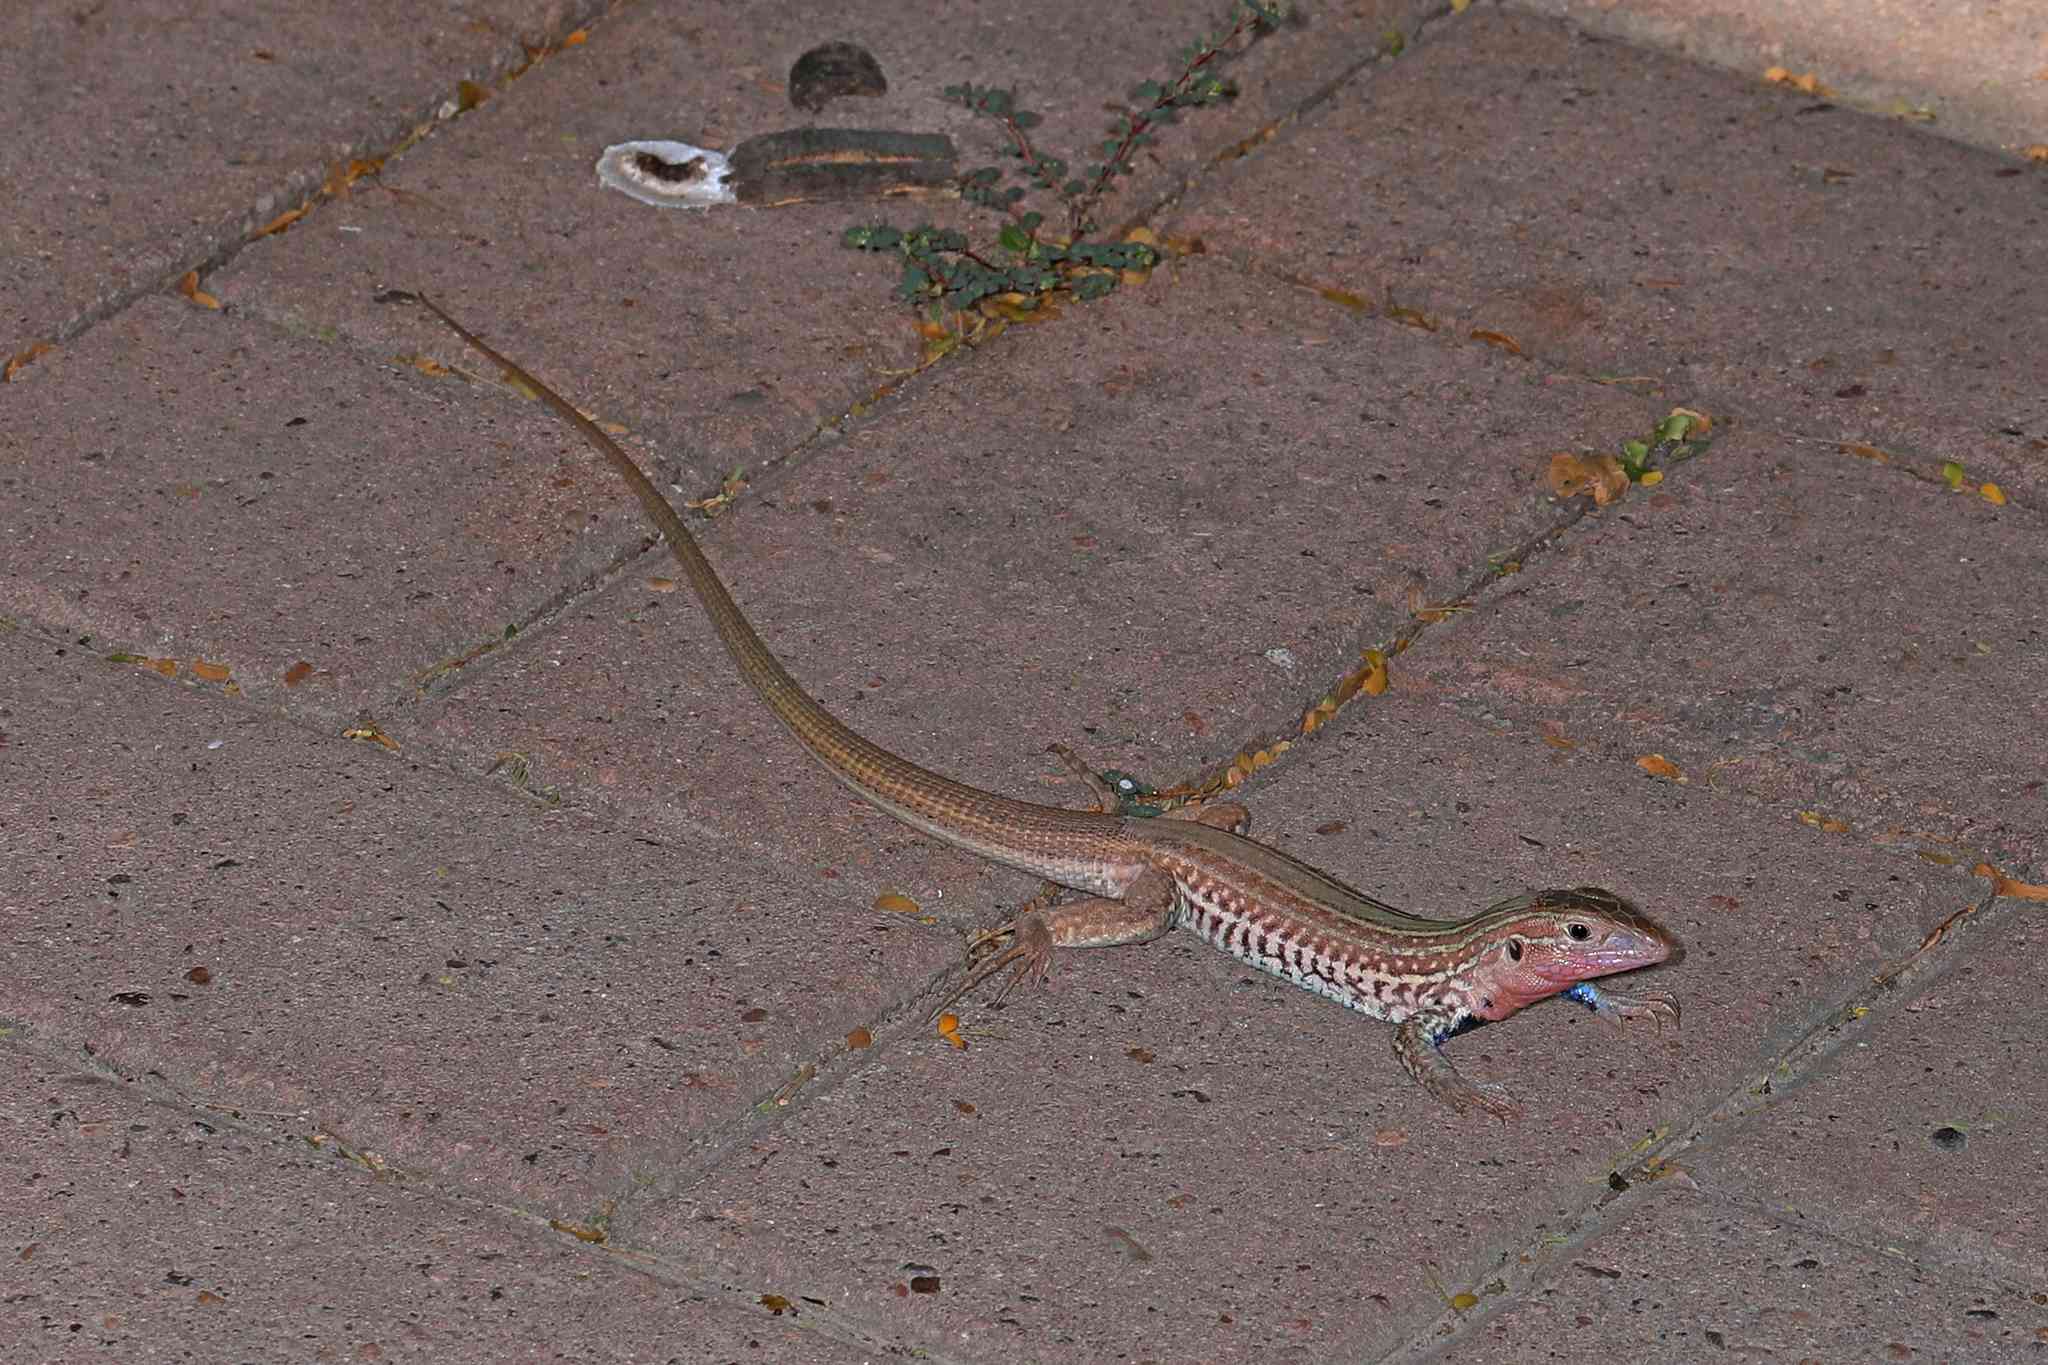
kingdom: Animalia
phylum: Chordata
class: Squamata
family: Teiidae
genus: Aspidoscelis
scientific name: Aspidoscelis gularis
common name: Eastern spotted whiptail
